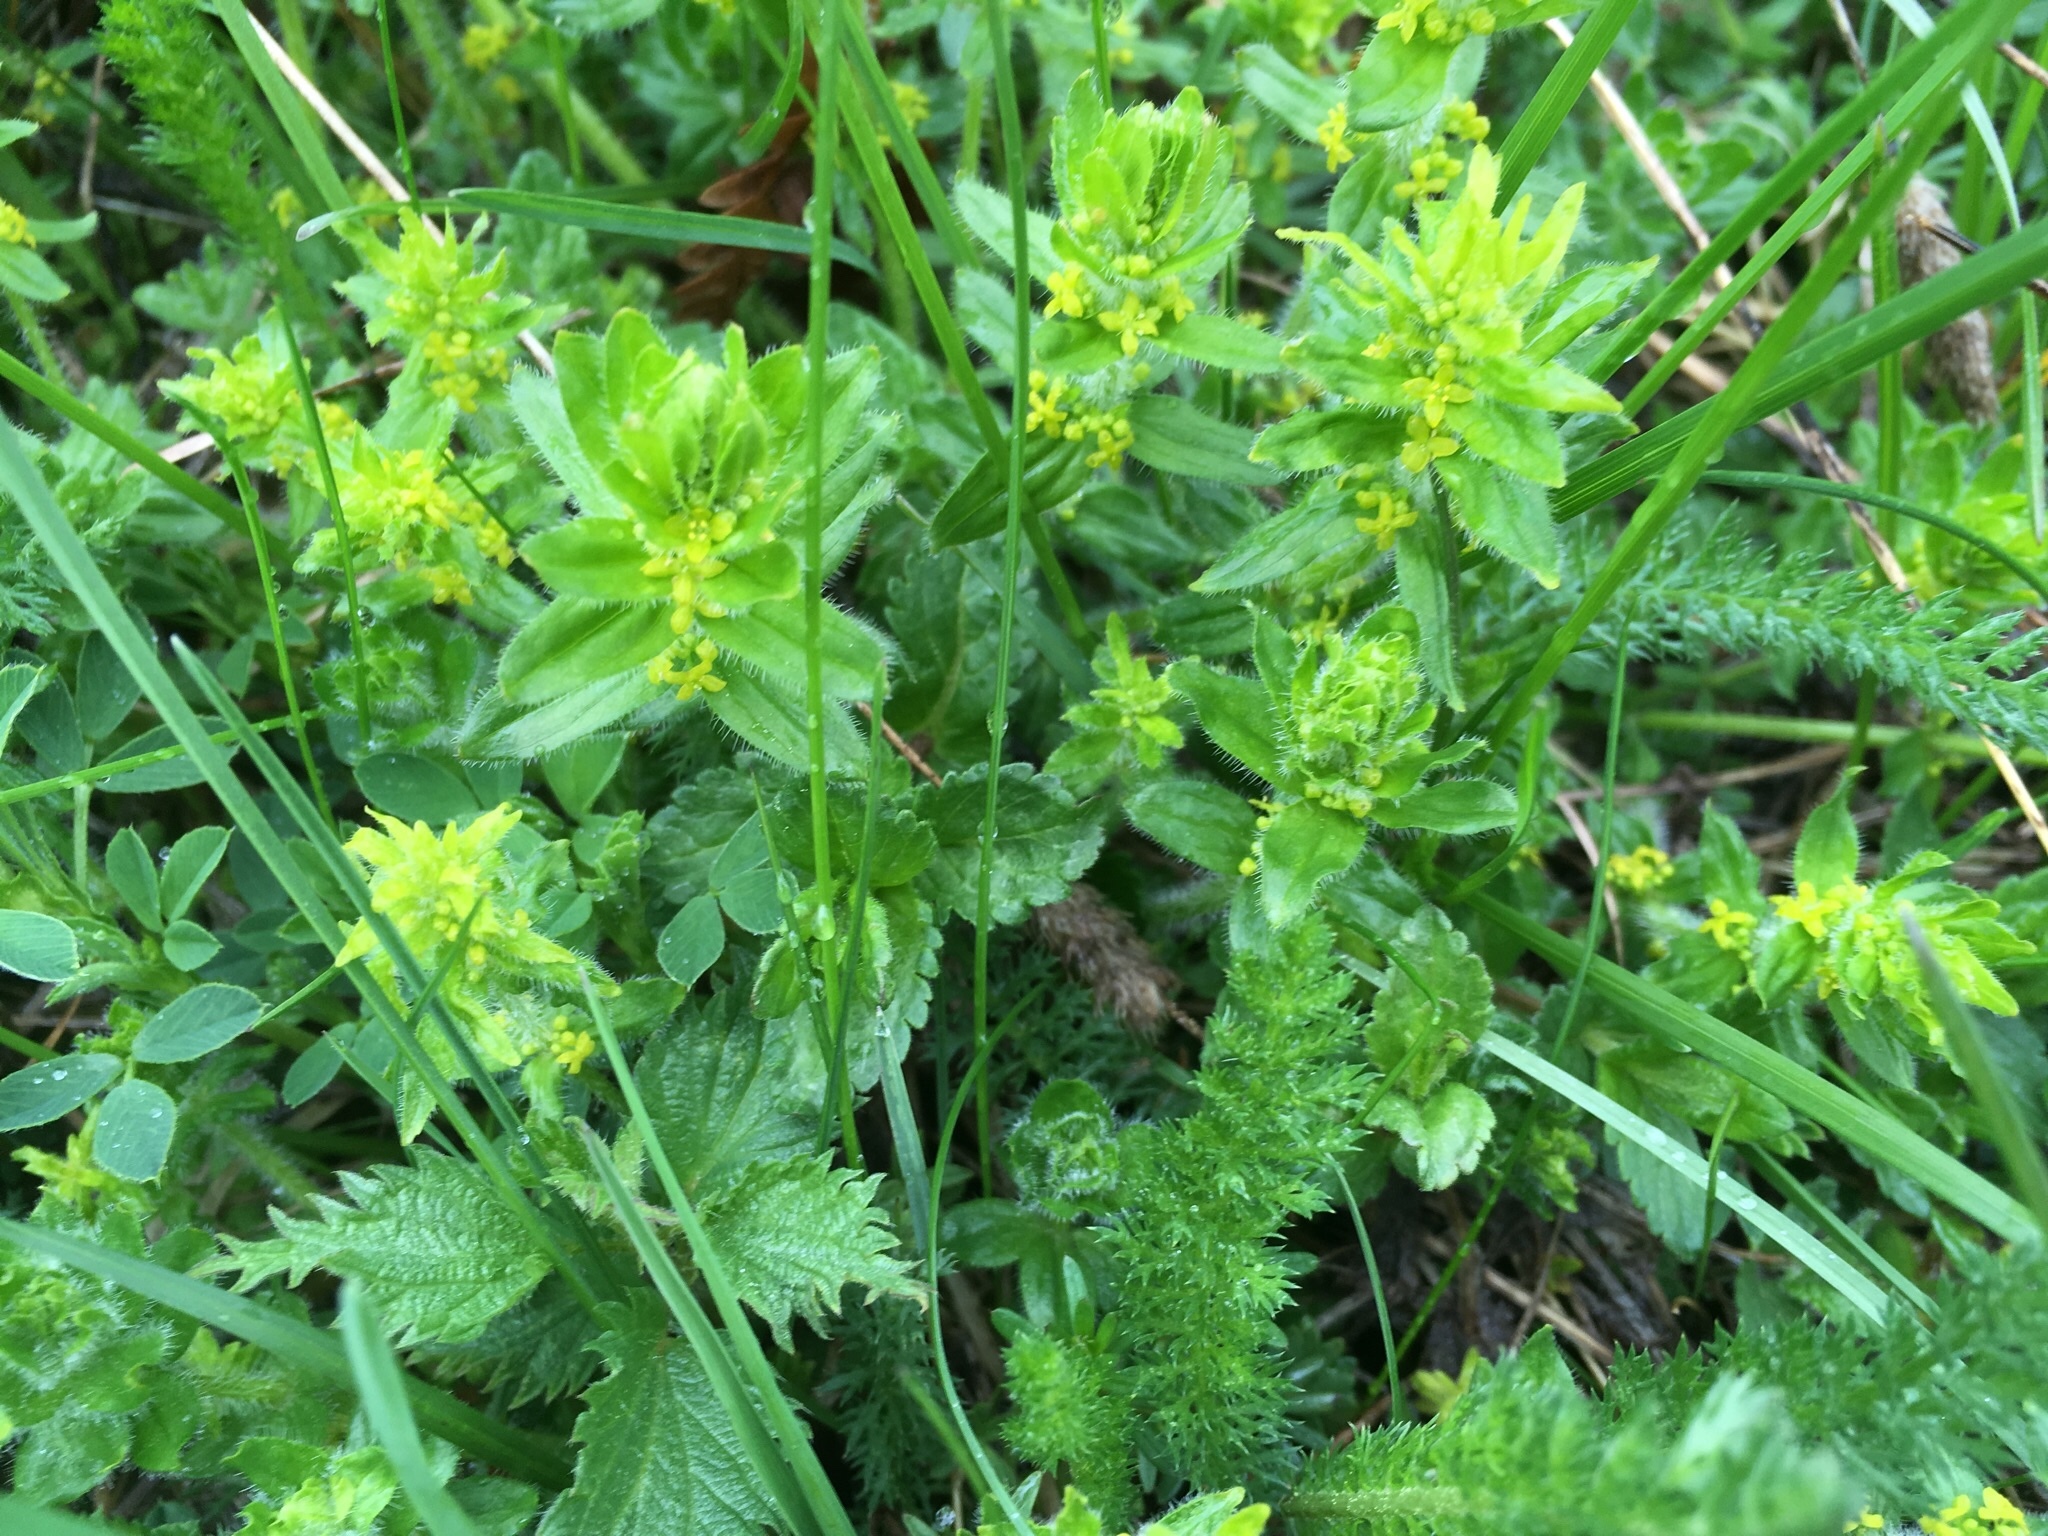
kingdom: Plantae
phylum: Tracheophyta
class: Magnoliopsida
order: Gentianales
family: Rubiaceae
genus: Cruciata
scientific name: Cruciata laevipes
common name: Crosswort
